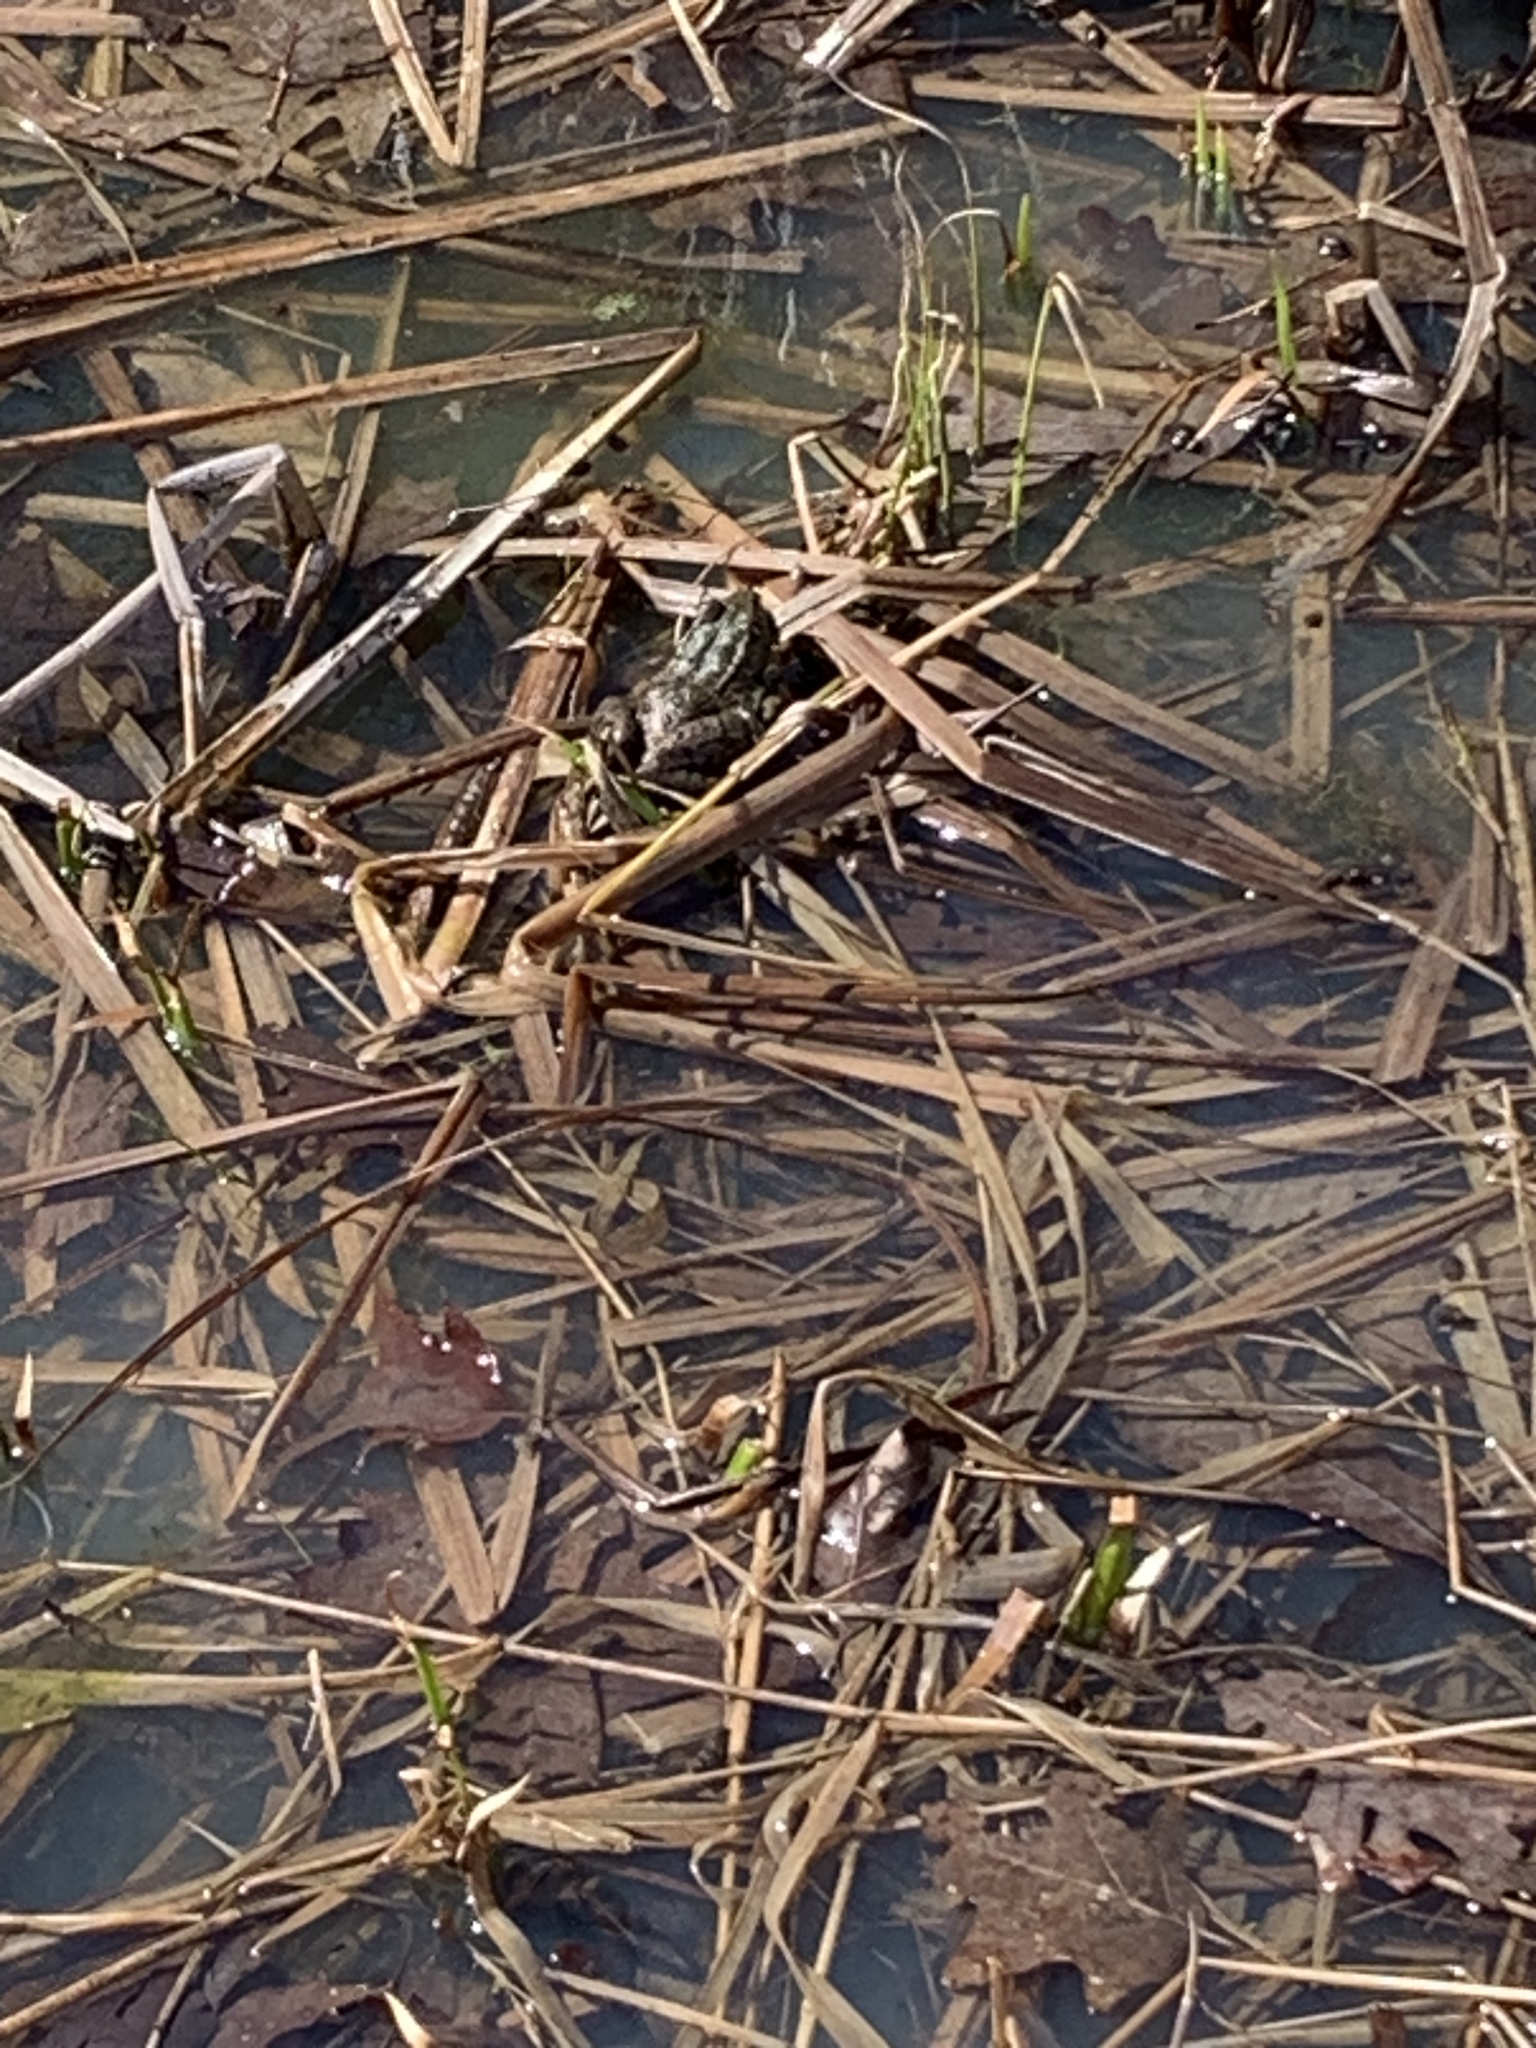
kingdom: Animalia
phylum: Chordata
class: Amphibia
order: Anura
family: Ranidae
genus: Lithobates
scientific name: Lithobates clamitans
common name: Green frog
